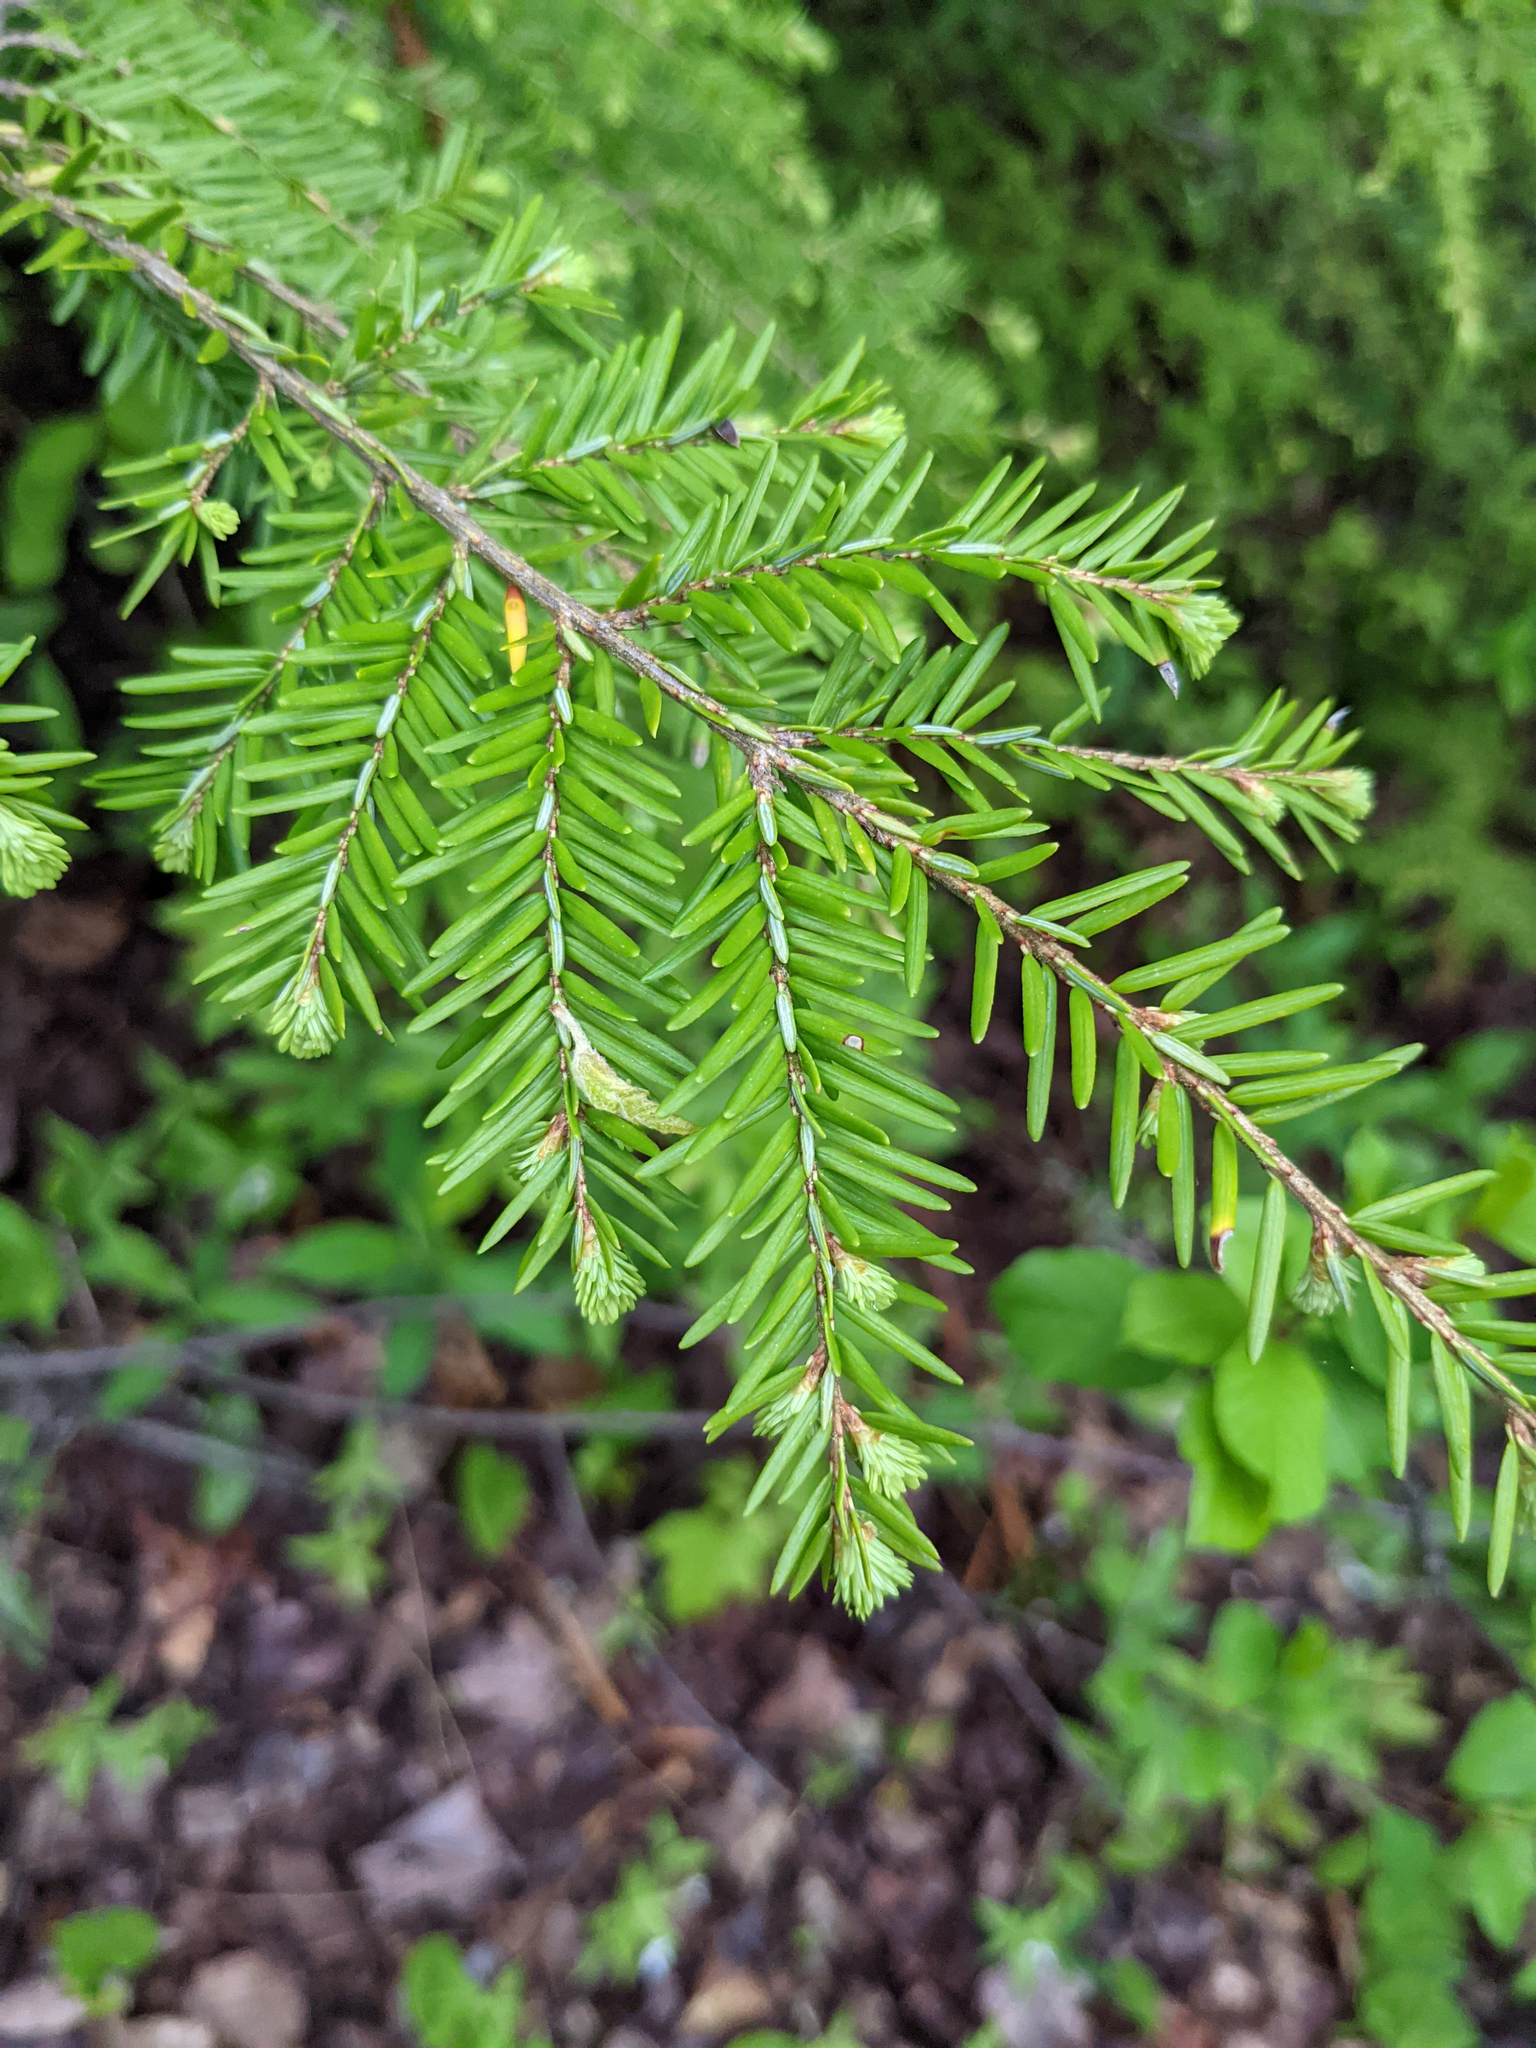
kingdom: Plantae
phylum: Tracheophyta
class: Pinopsida
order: Pinales
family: Pinaceae
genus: Tsuga
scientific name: Tsuga canadensis
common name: Eastern hemlock
